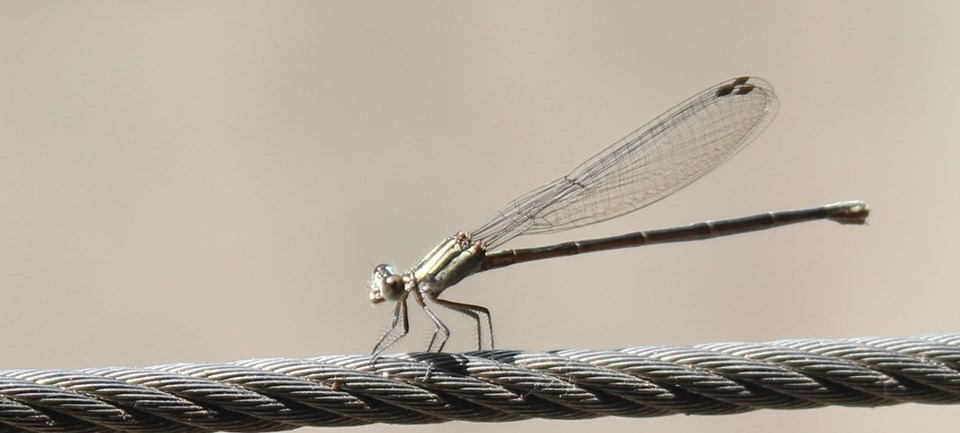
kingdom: Animalia
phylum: Arthropoda
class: Insecta
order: Odonata
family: Coenagrionidae
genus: Argia
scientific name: Argia translata
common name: Dusky dancer
